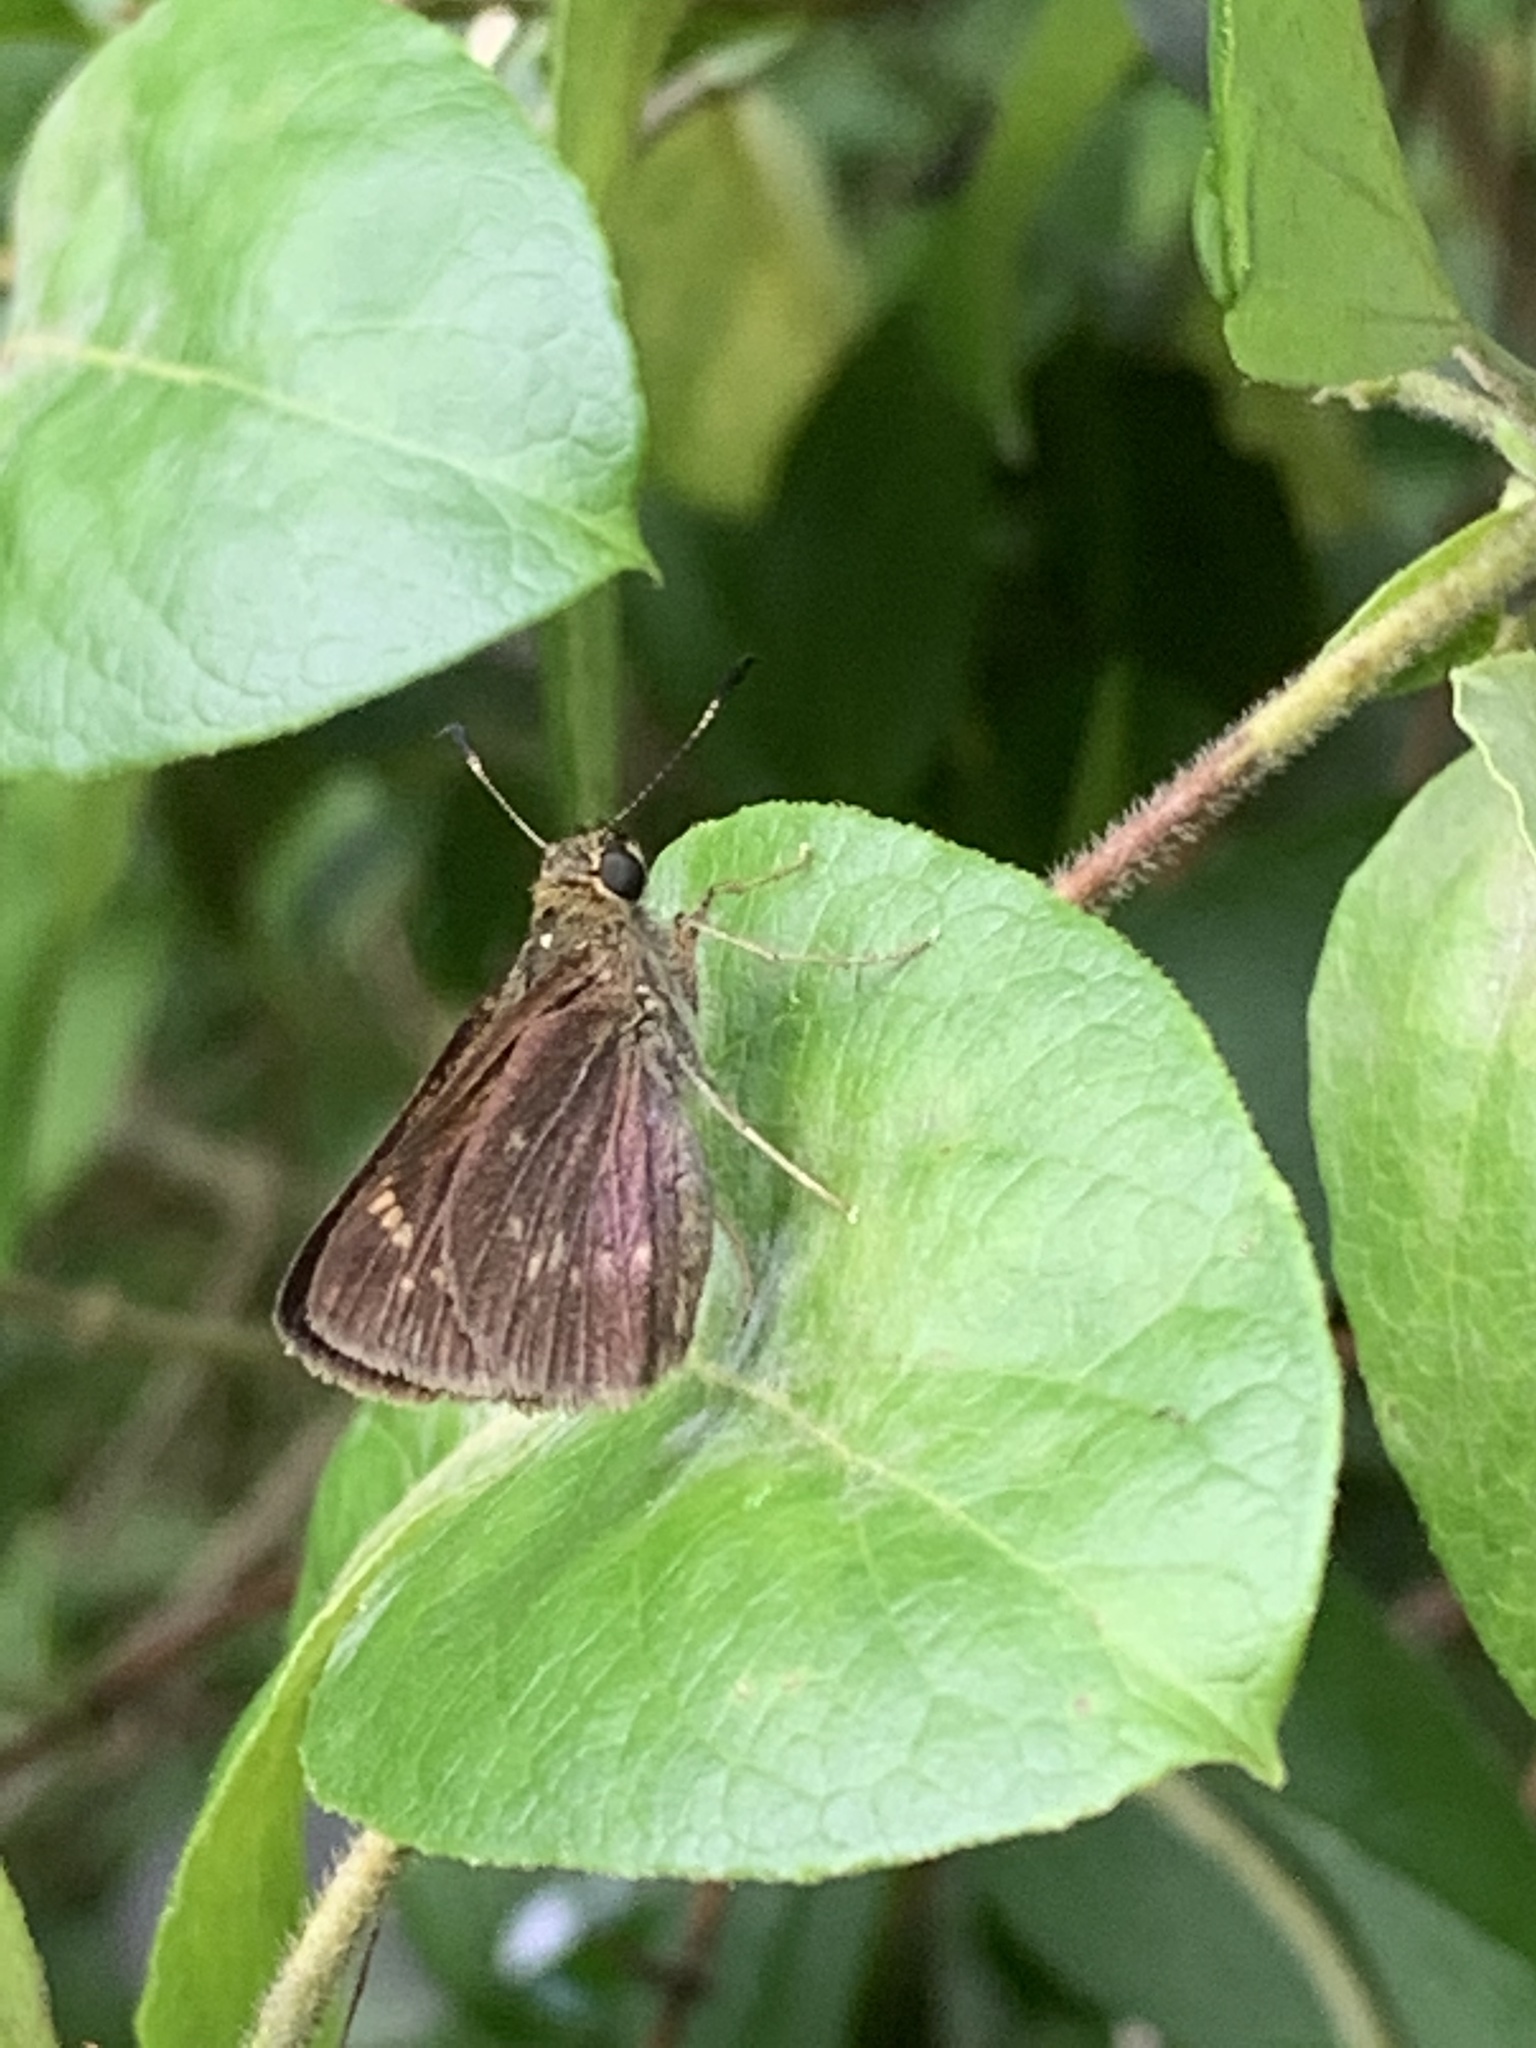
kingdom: Animalia
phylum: Arthropoda
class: Insecta
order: Lepidoptera
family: Hesperiidae
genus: Vernia
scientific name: Vernia verna
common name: Little glassywing
